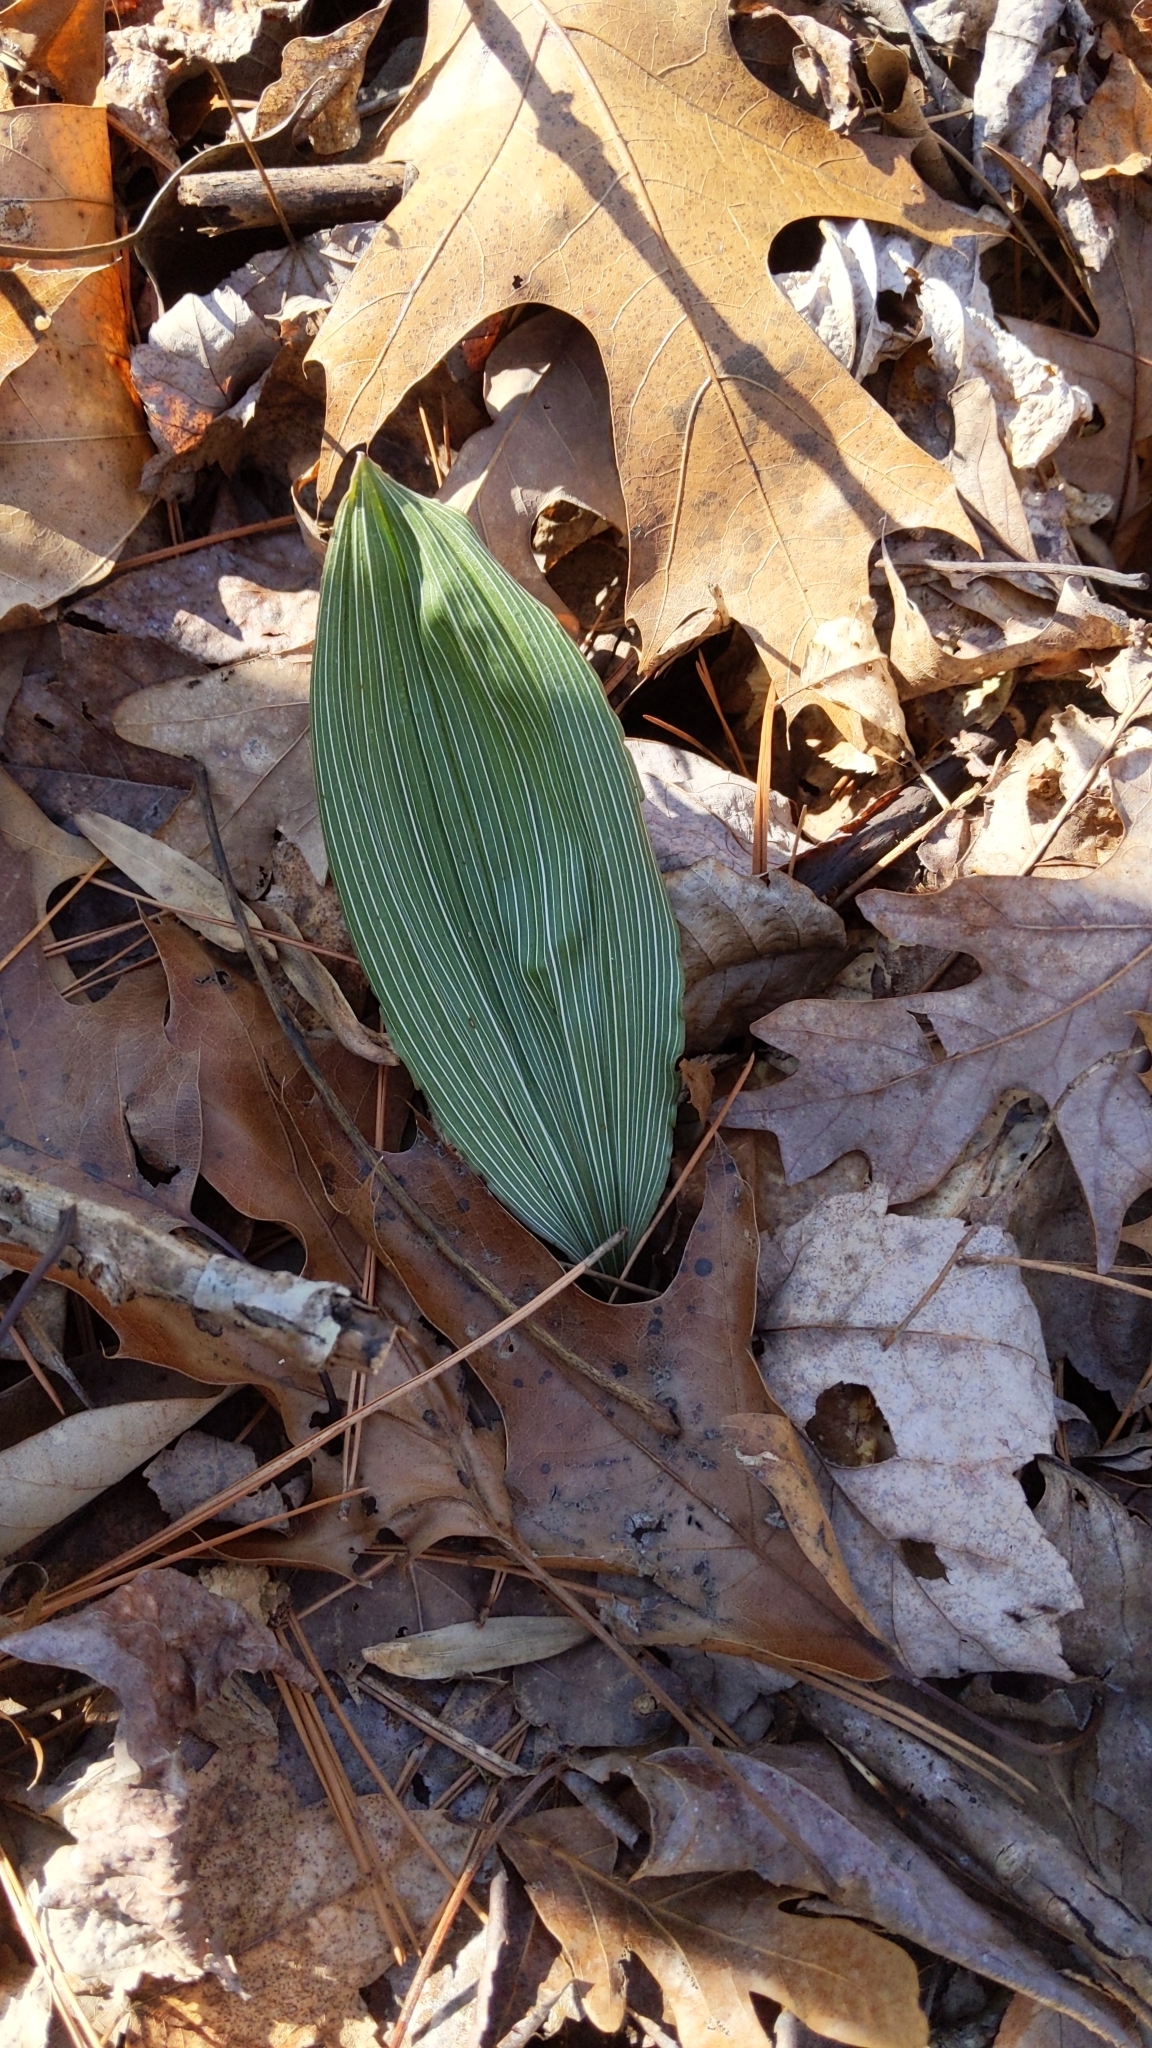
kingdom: Plantae
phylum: Tracheophyta
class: Liliopsida
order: Asparagales
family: Orchidaceae
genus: Aplectrum
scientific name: Aplectrum hyemale
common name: Adam-and-eve
